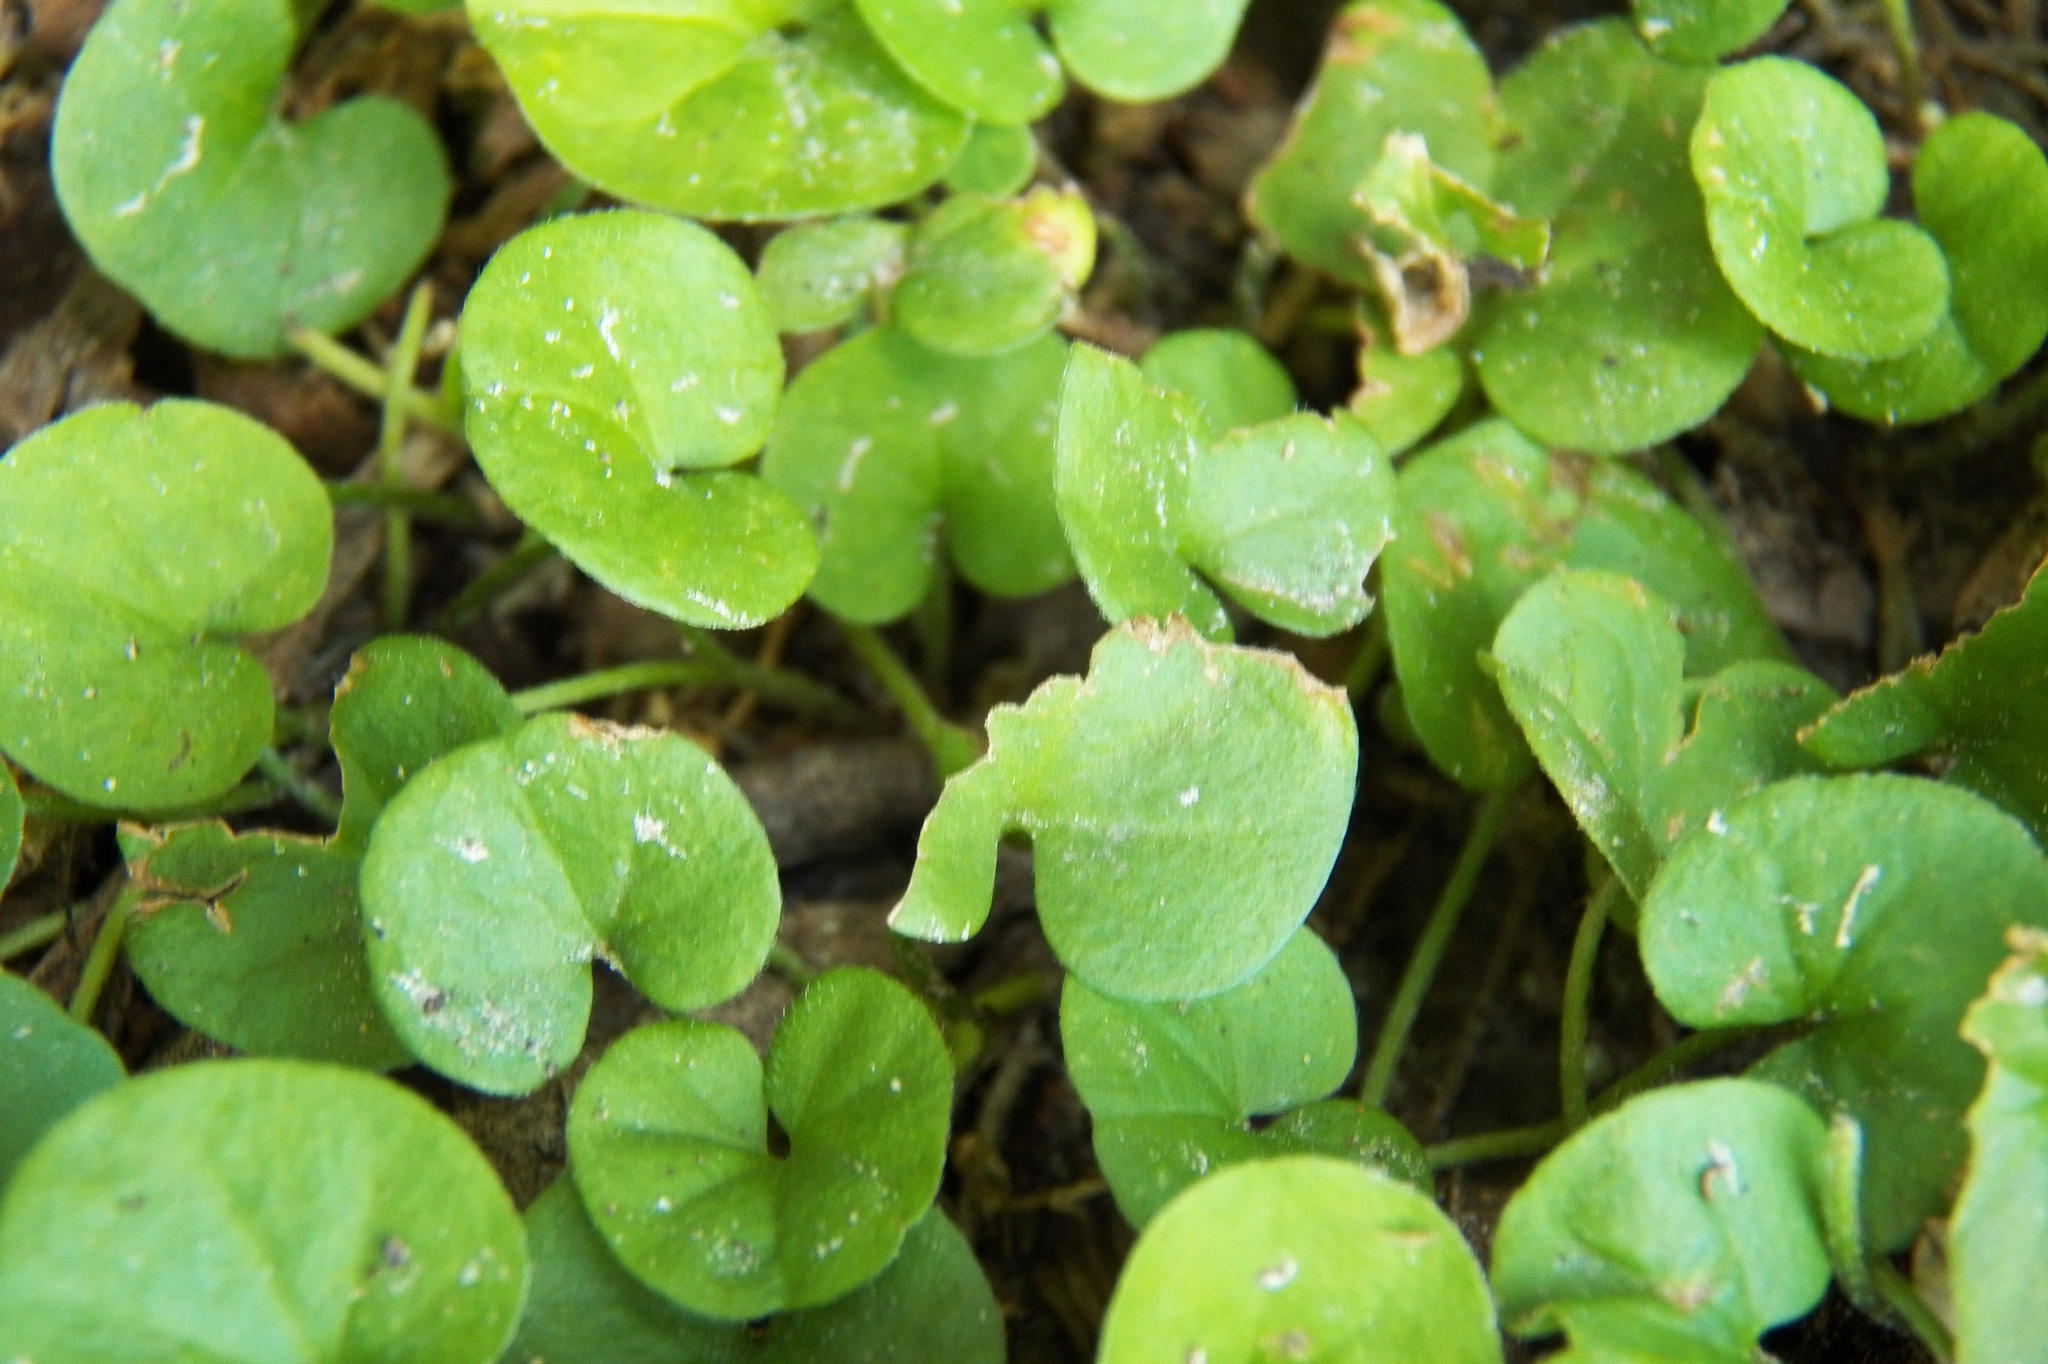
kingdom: Plantae
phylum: Tracheophyta
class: Magnoliopsida
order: Solanales
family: Convolvulaceae
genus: Dichondra
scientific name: Dichondra carolinensis
